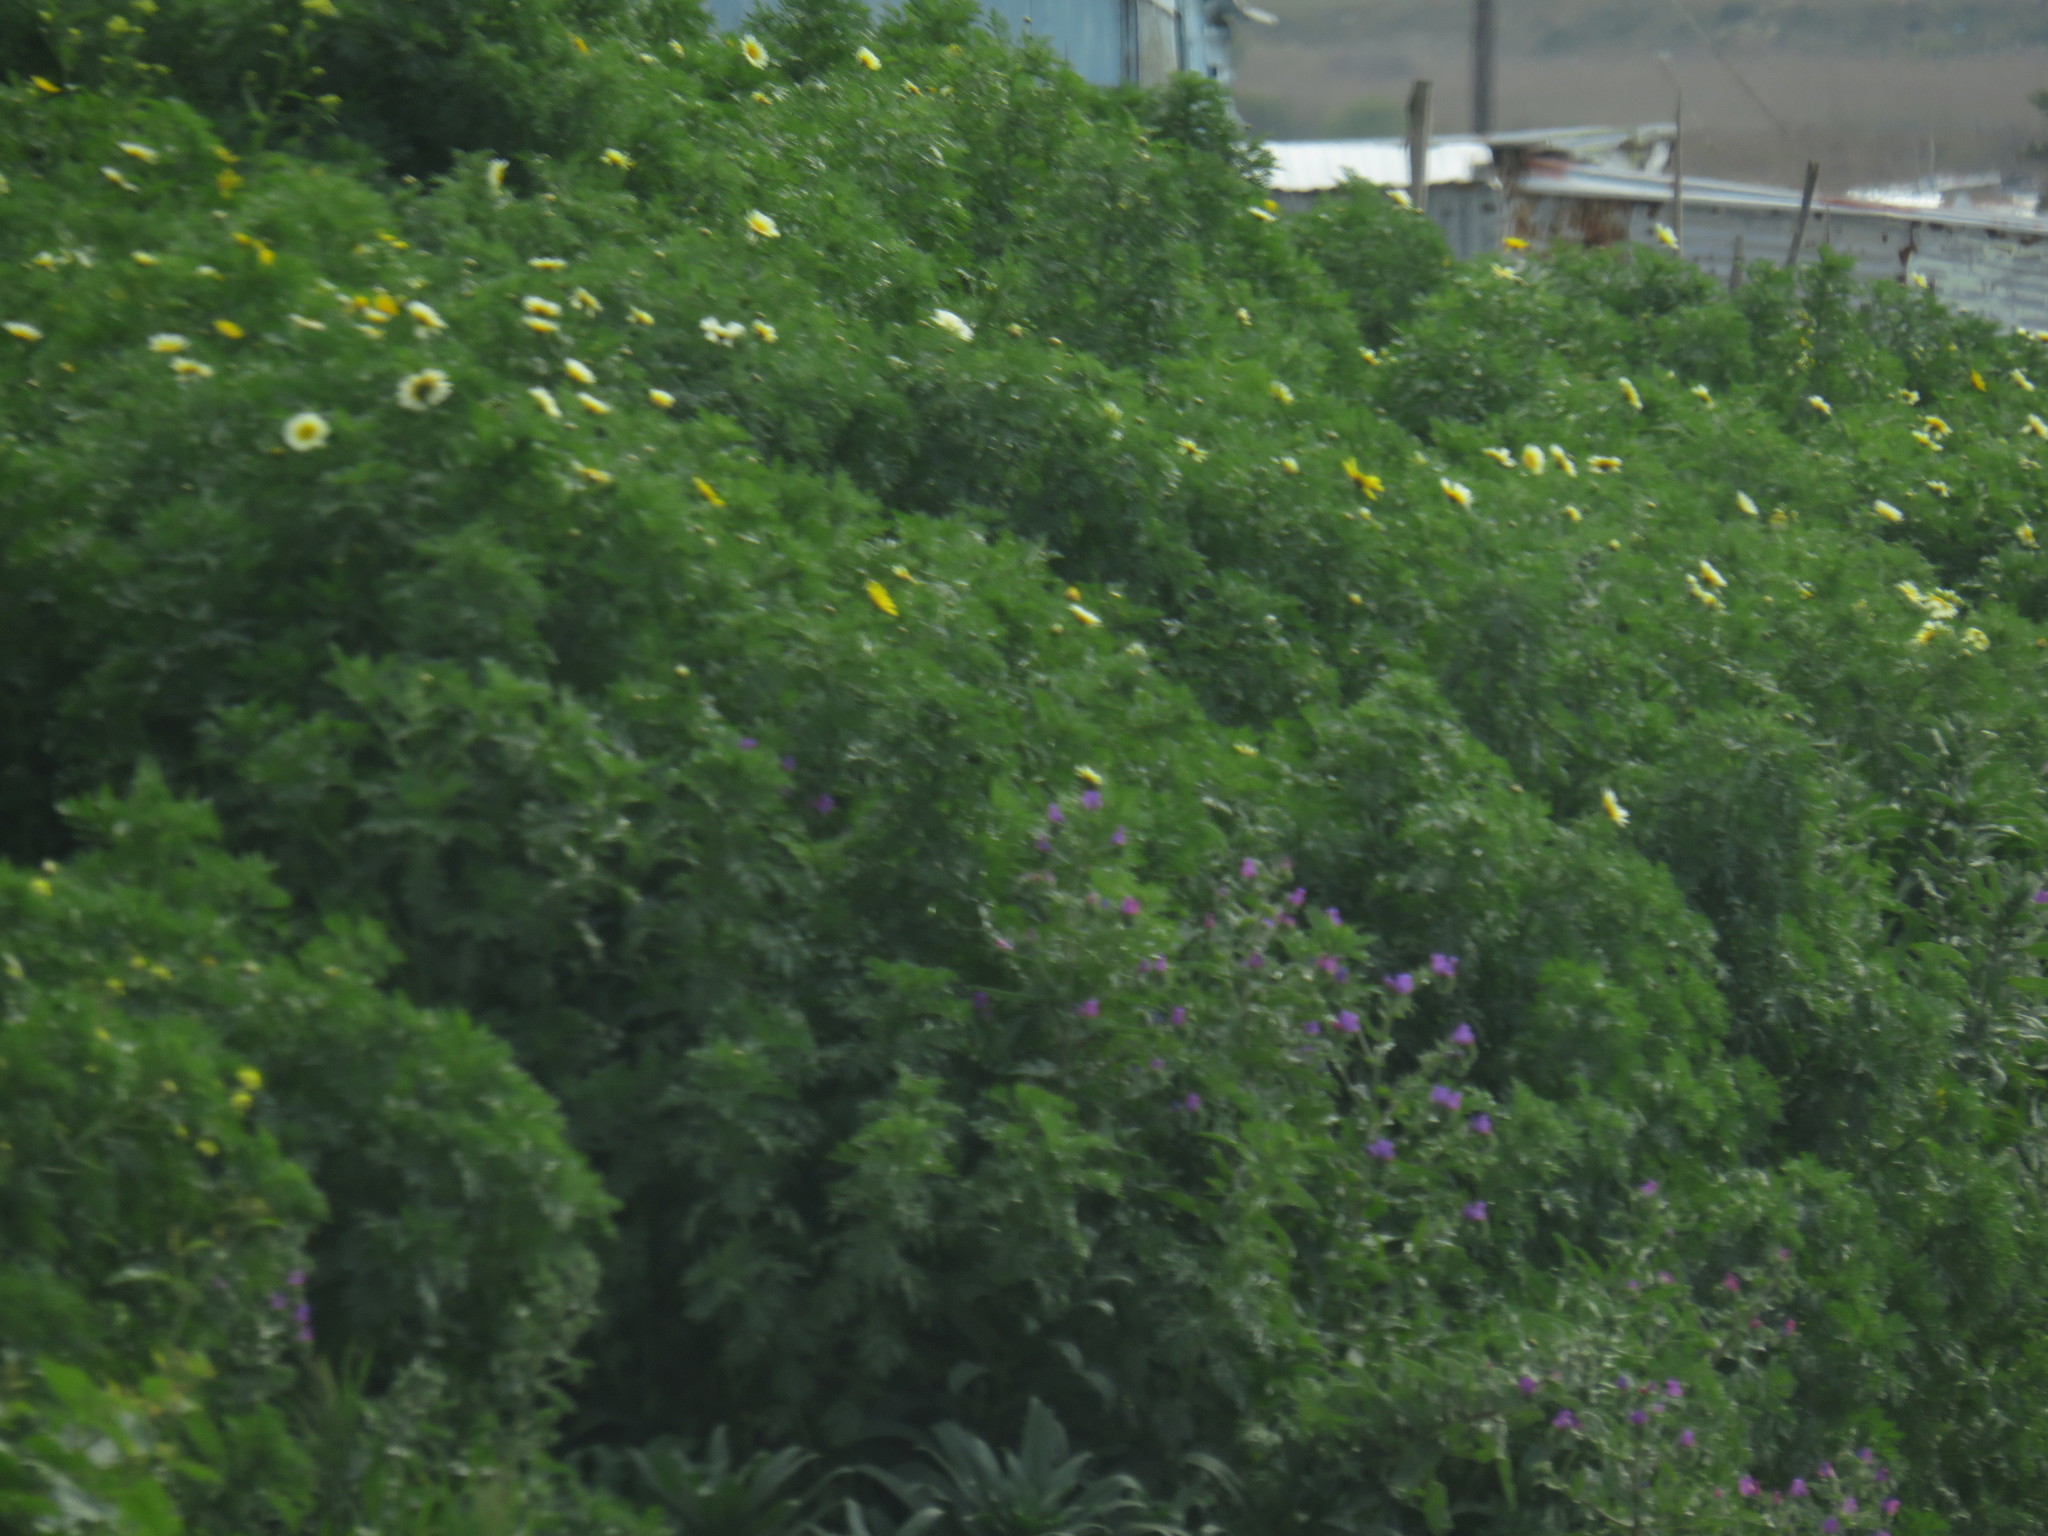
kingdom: Plantae
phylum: Tracheophyta
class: Magnoliopsida
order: Boraginales
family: Boraginaceae
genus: Echium
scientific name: Echium plantagineum
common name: Purple viper's-bugloss
